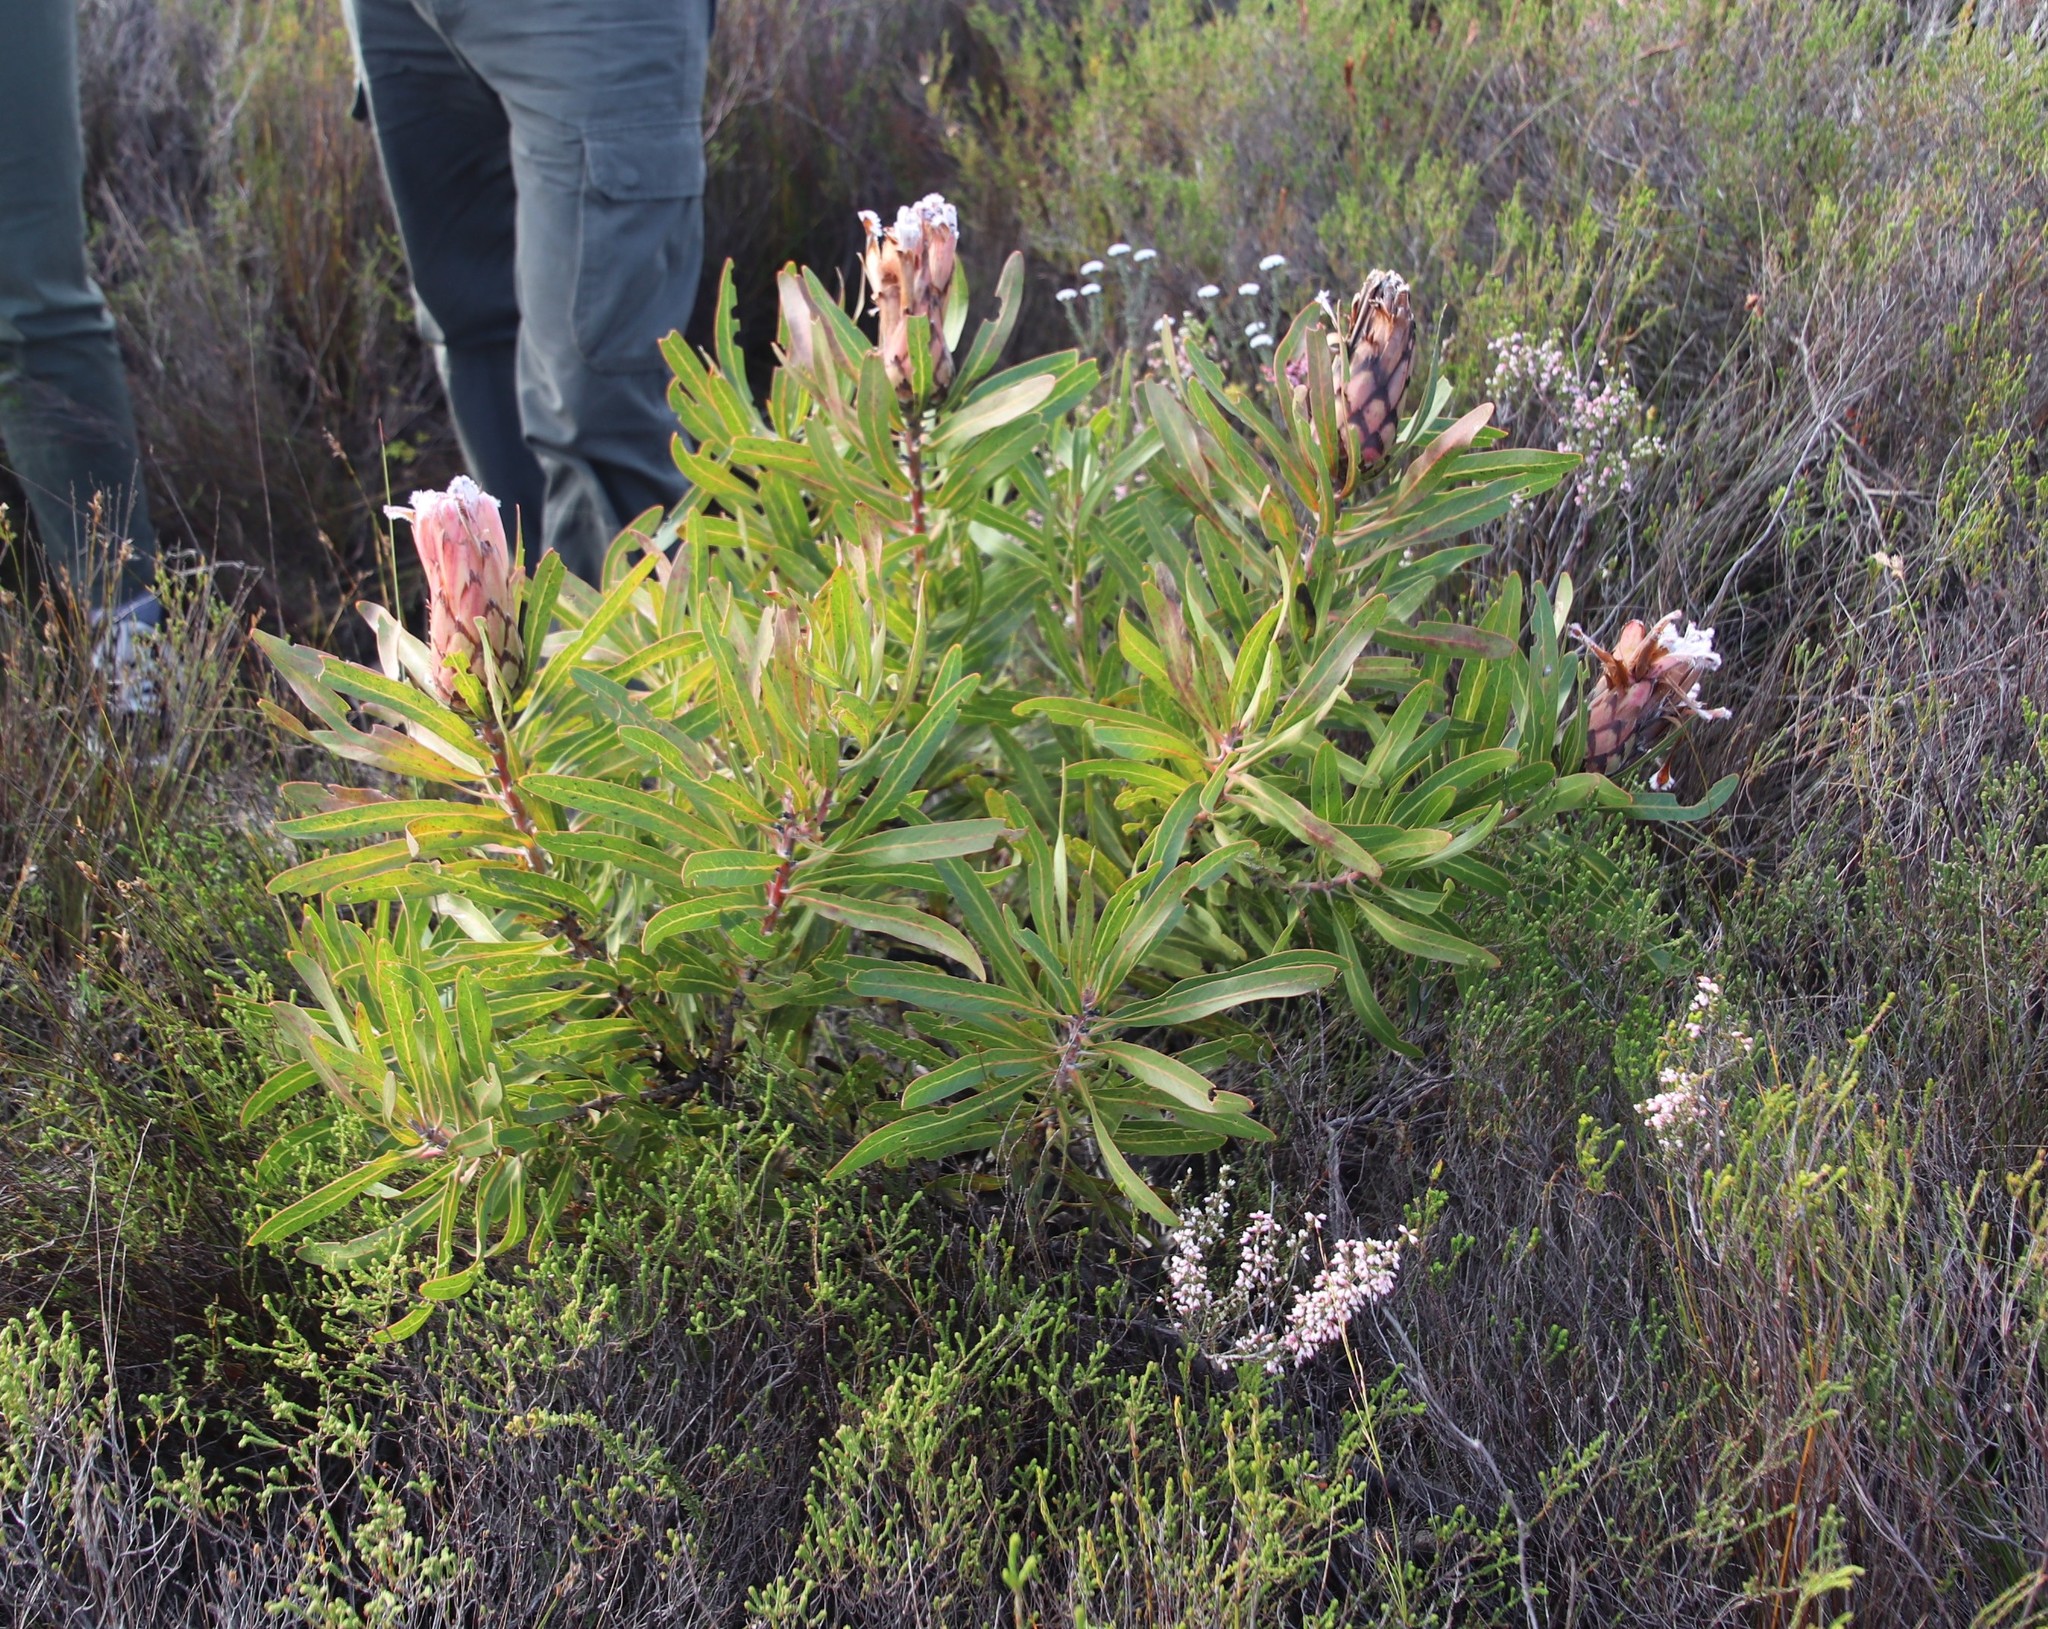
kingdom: Plantae
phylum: Tracheophyta
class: Magnoliopsida
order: Proteales
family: Proteaceae
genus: Protea
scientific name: Protea
